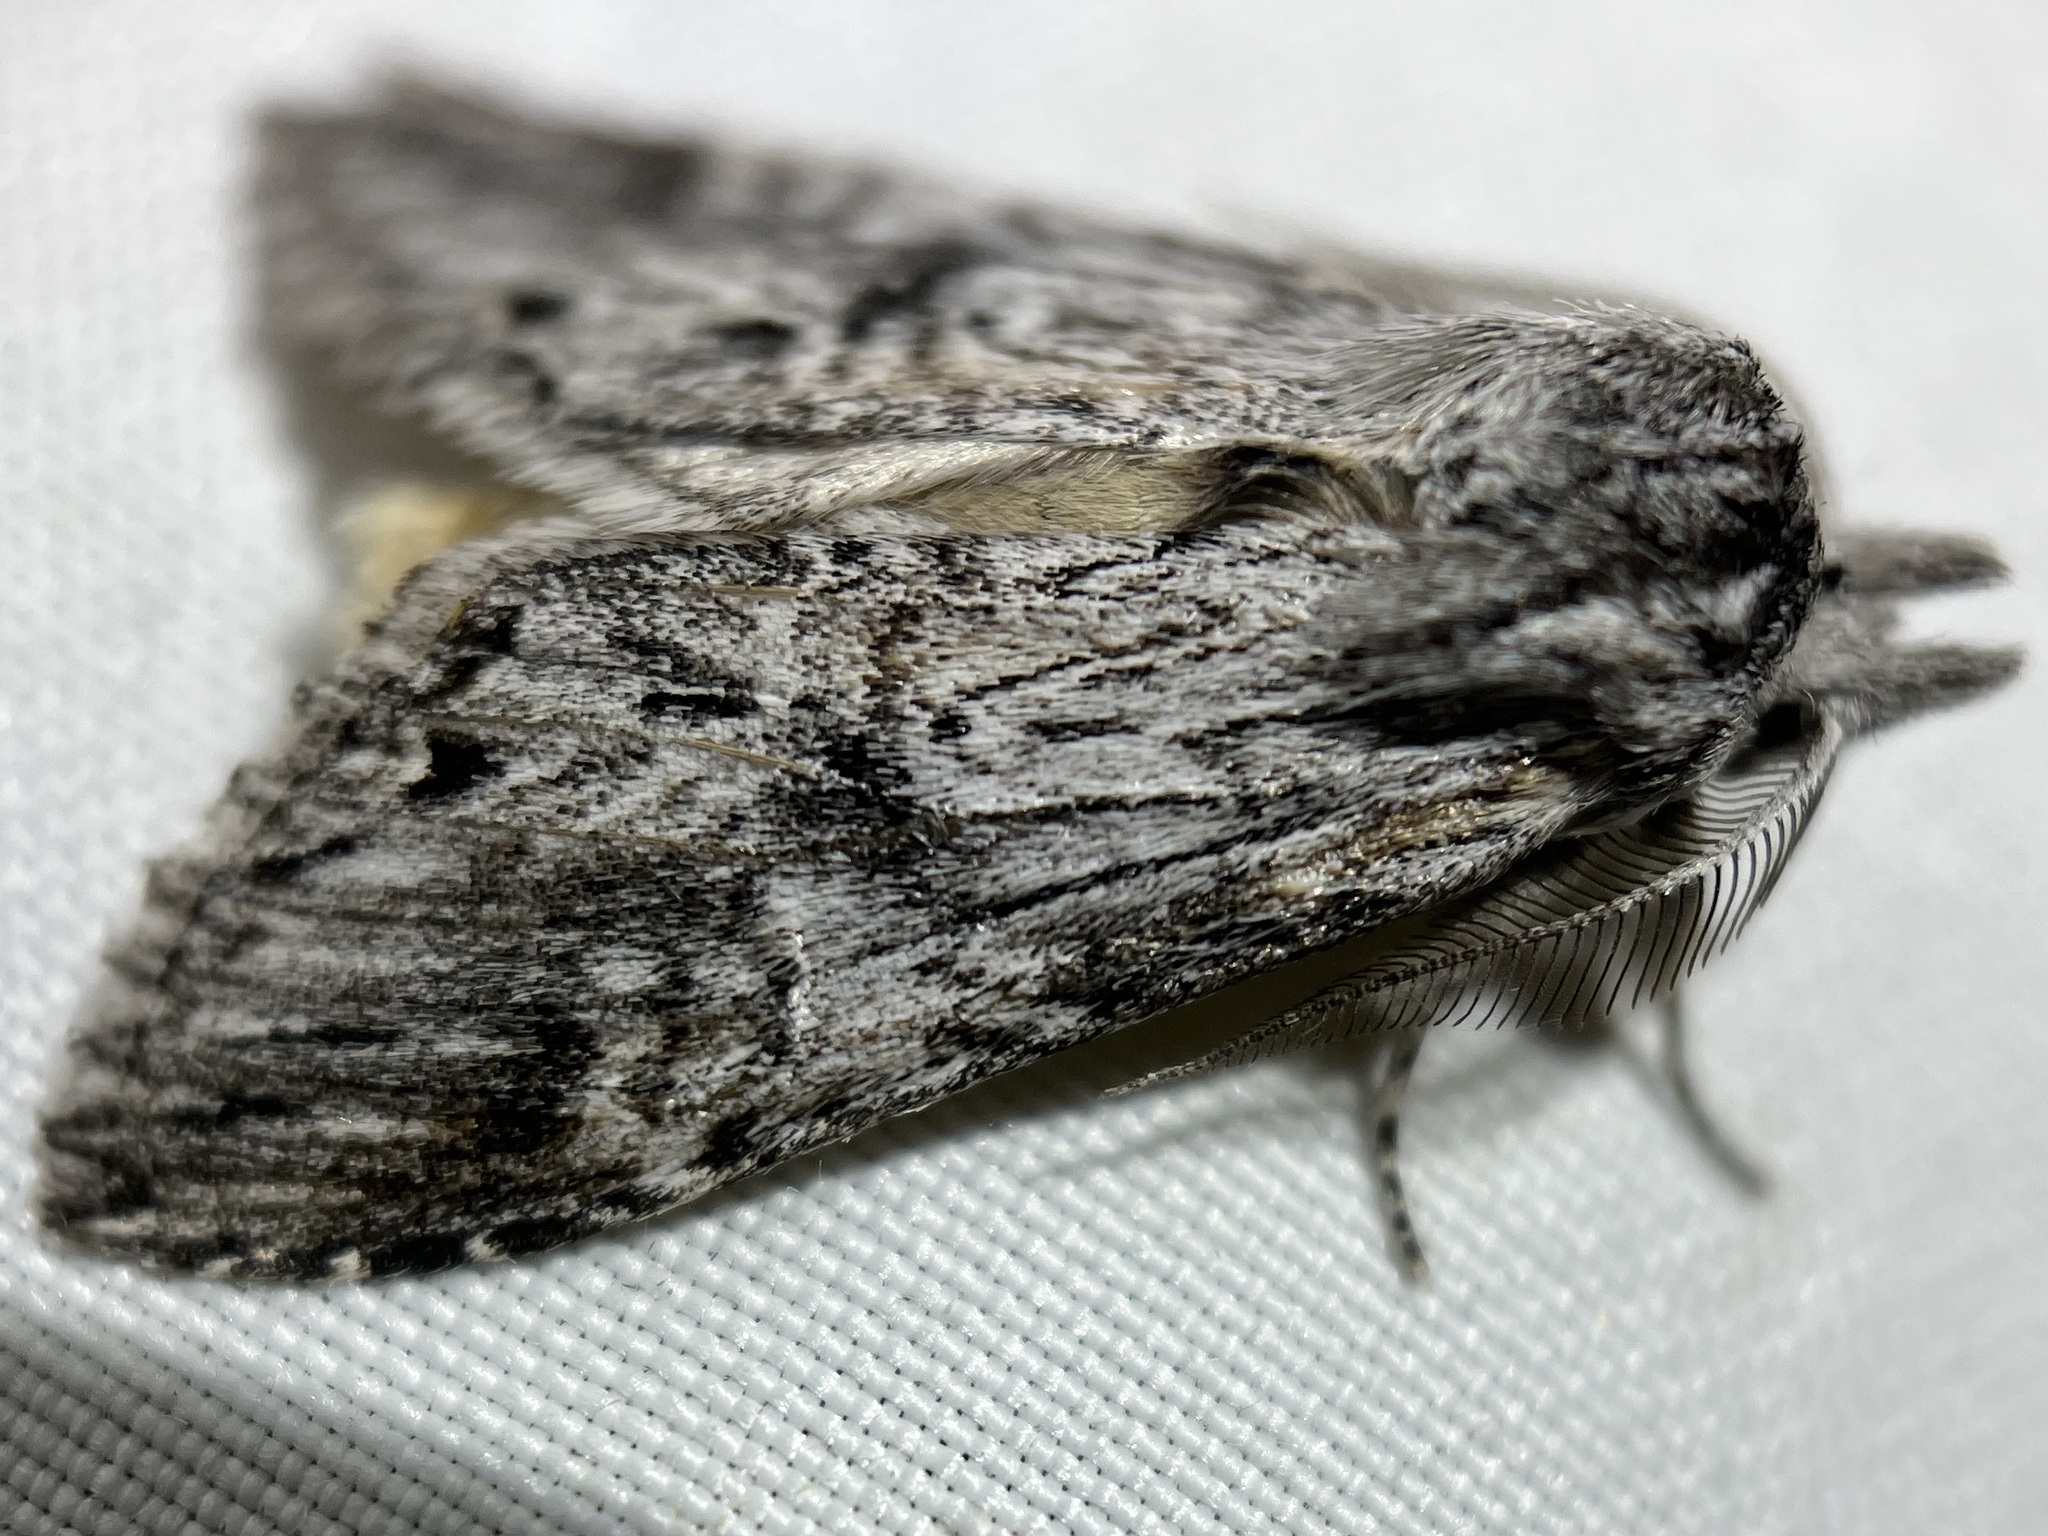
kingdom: Animalia
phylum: Arthropoda
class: Insecta
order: Lepidoptera
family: Notodontidae
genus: Notela
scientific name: Notela jaliscana
